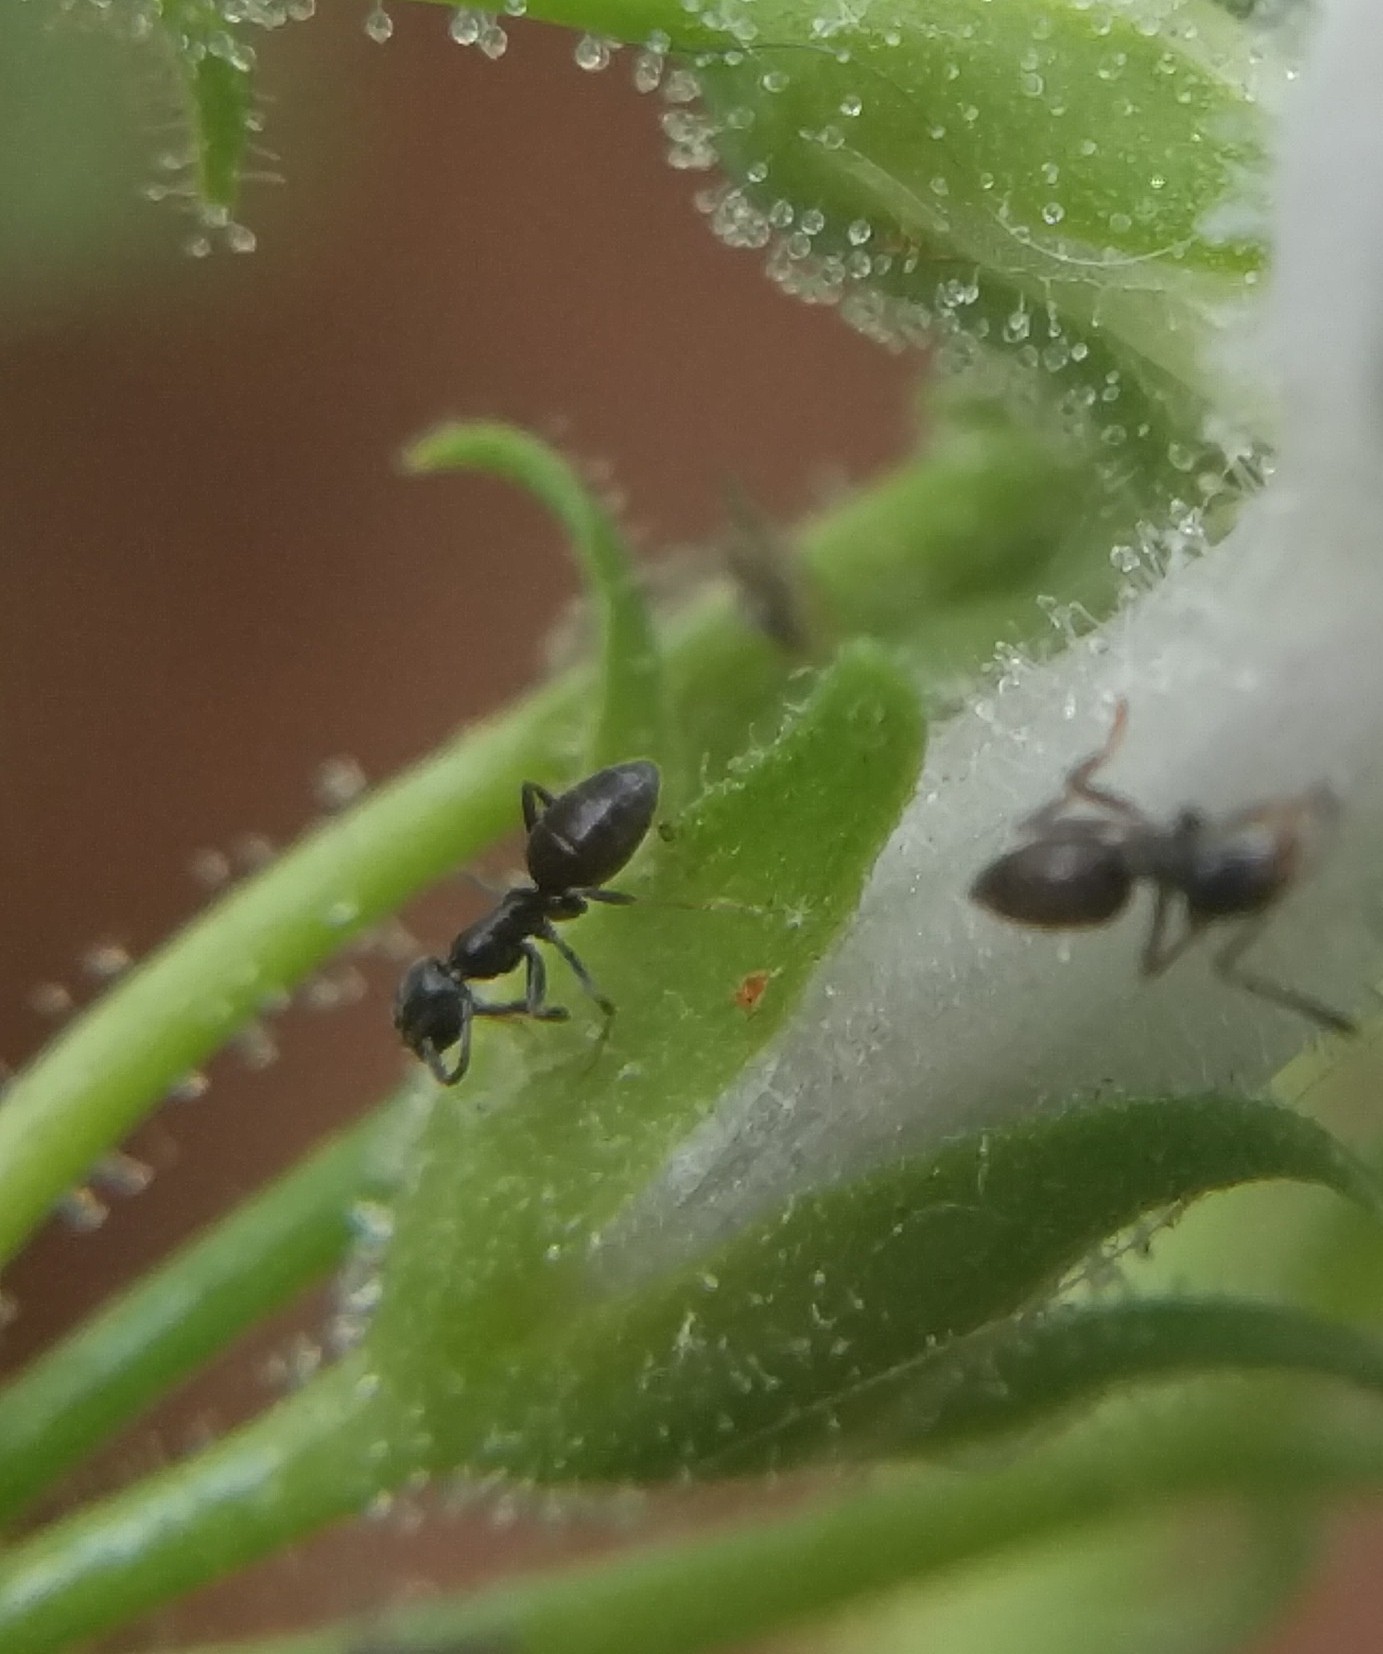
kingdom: Animalia
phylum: Arthropoda
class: Insecta
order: Hymenoptera
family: Formicidae
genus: Tapinoma
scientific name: Tapinoma sessile
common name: Odorous house ant
